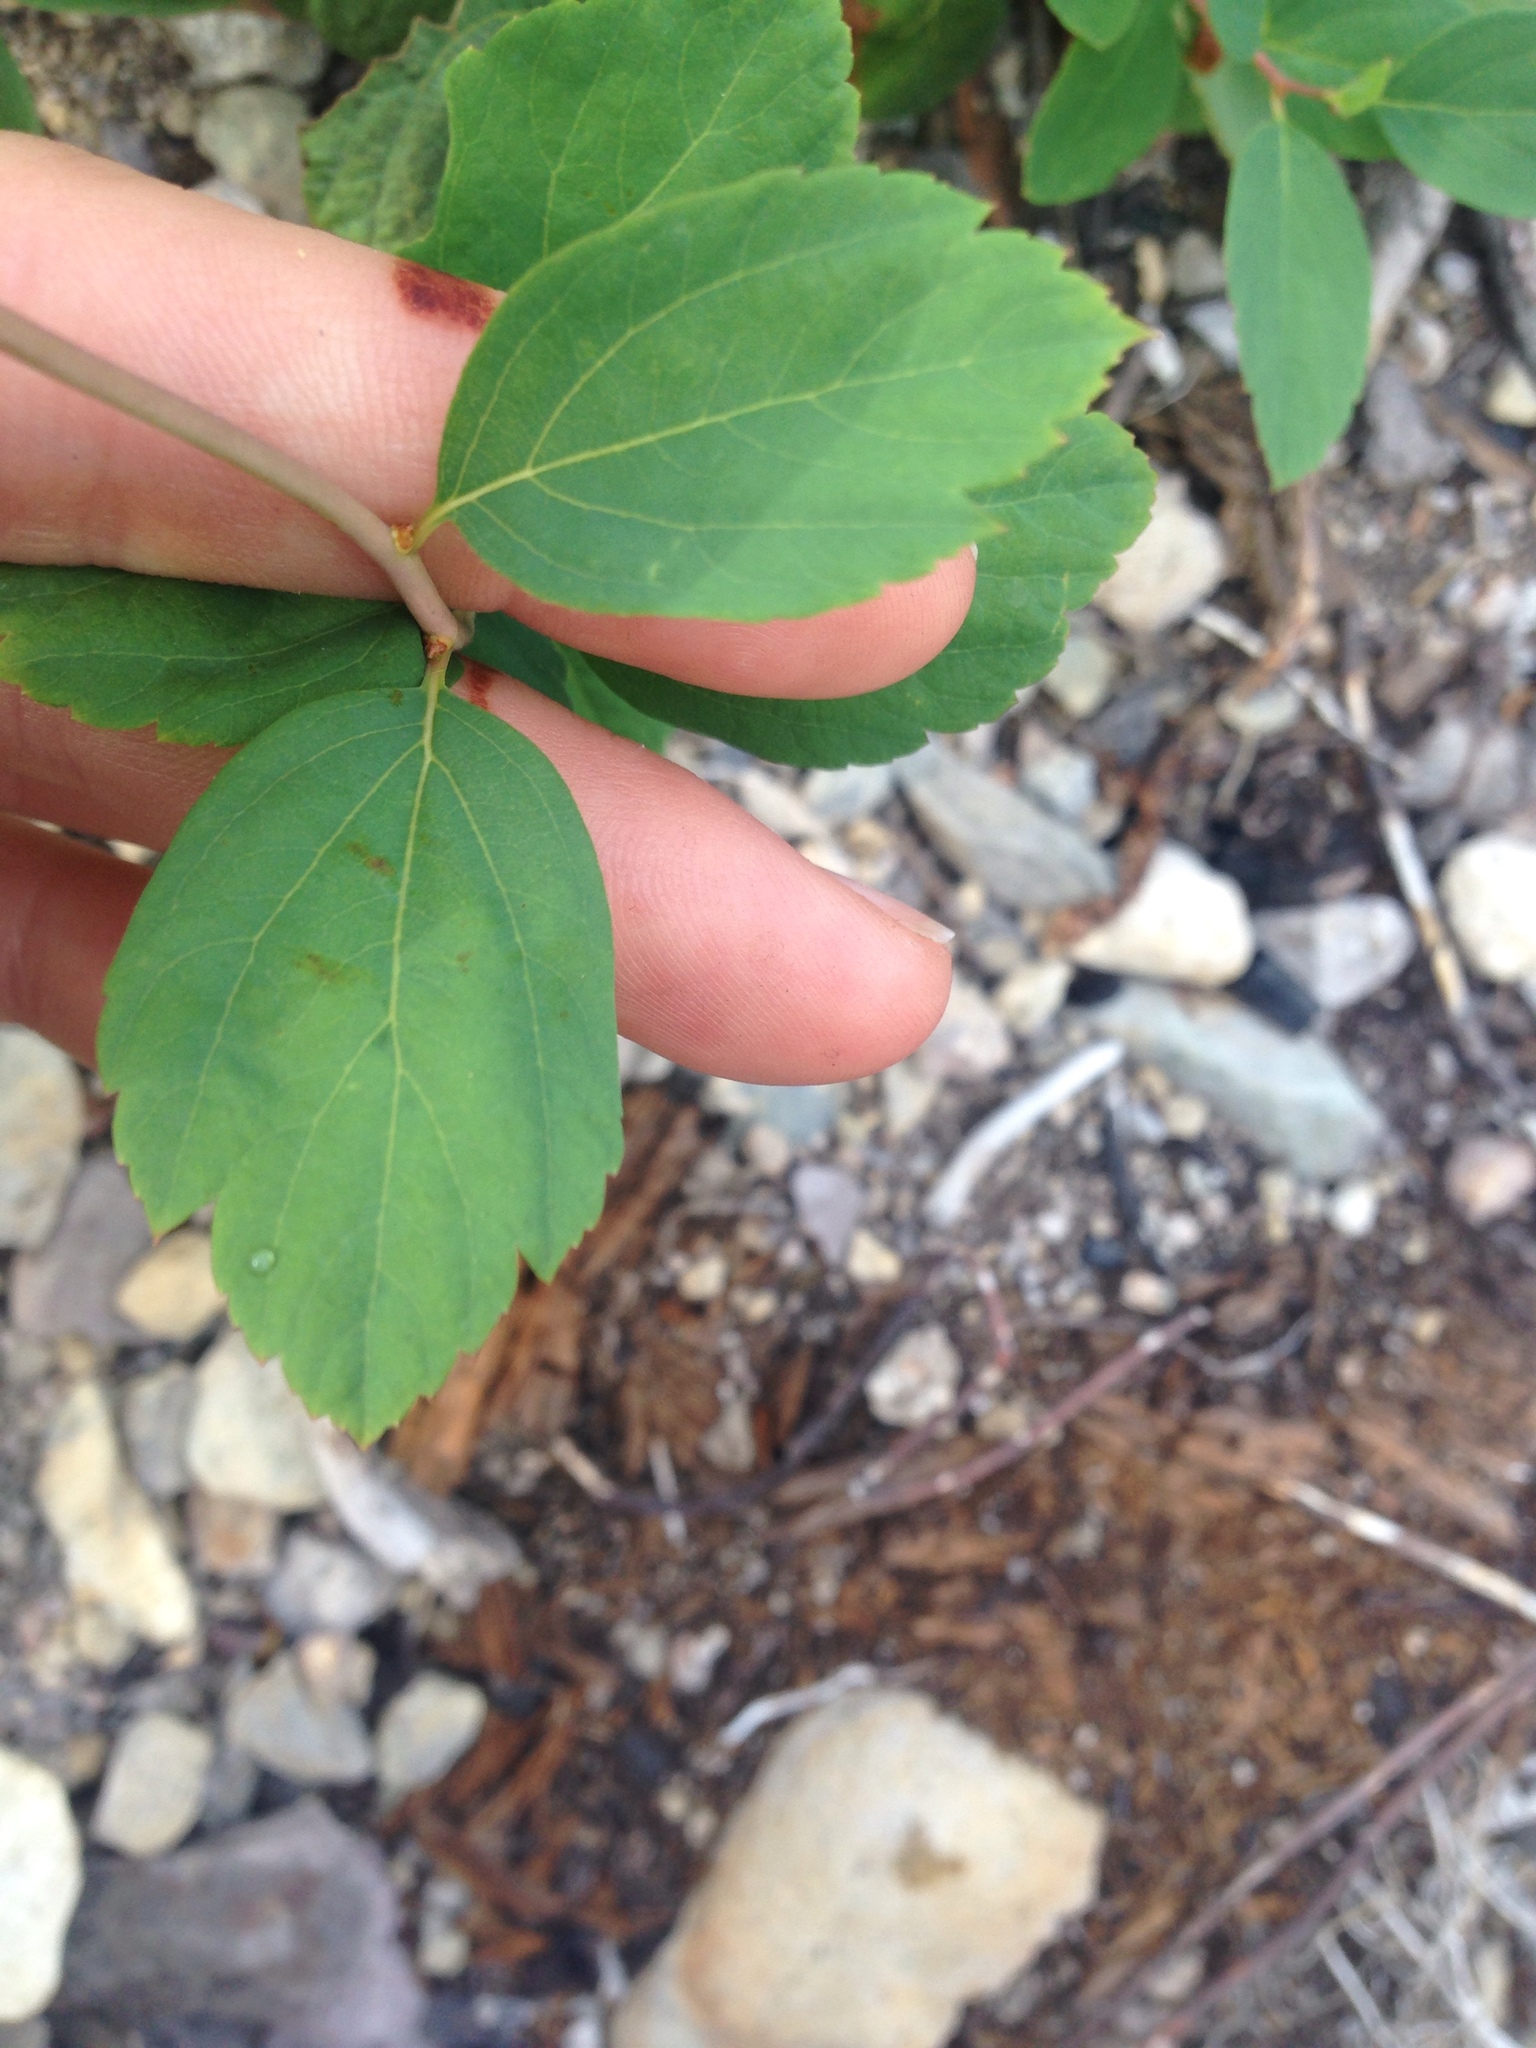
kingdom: Plantae
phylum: Tracheophyta
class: Magnoliopsida
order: Rosales
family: Rosaceae
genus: Spiraea
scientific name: Spiraea lucida
